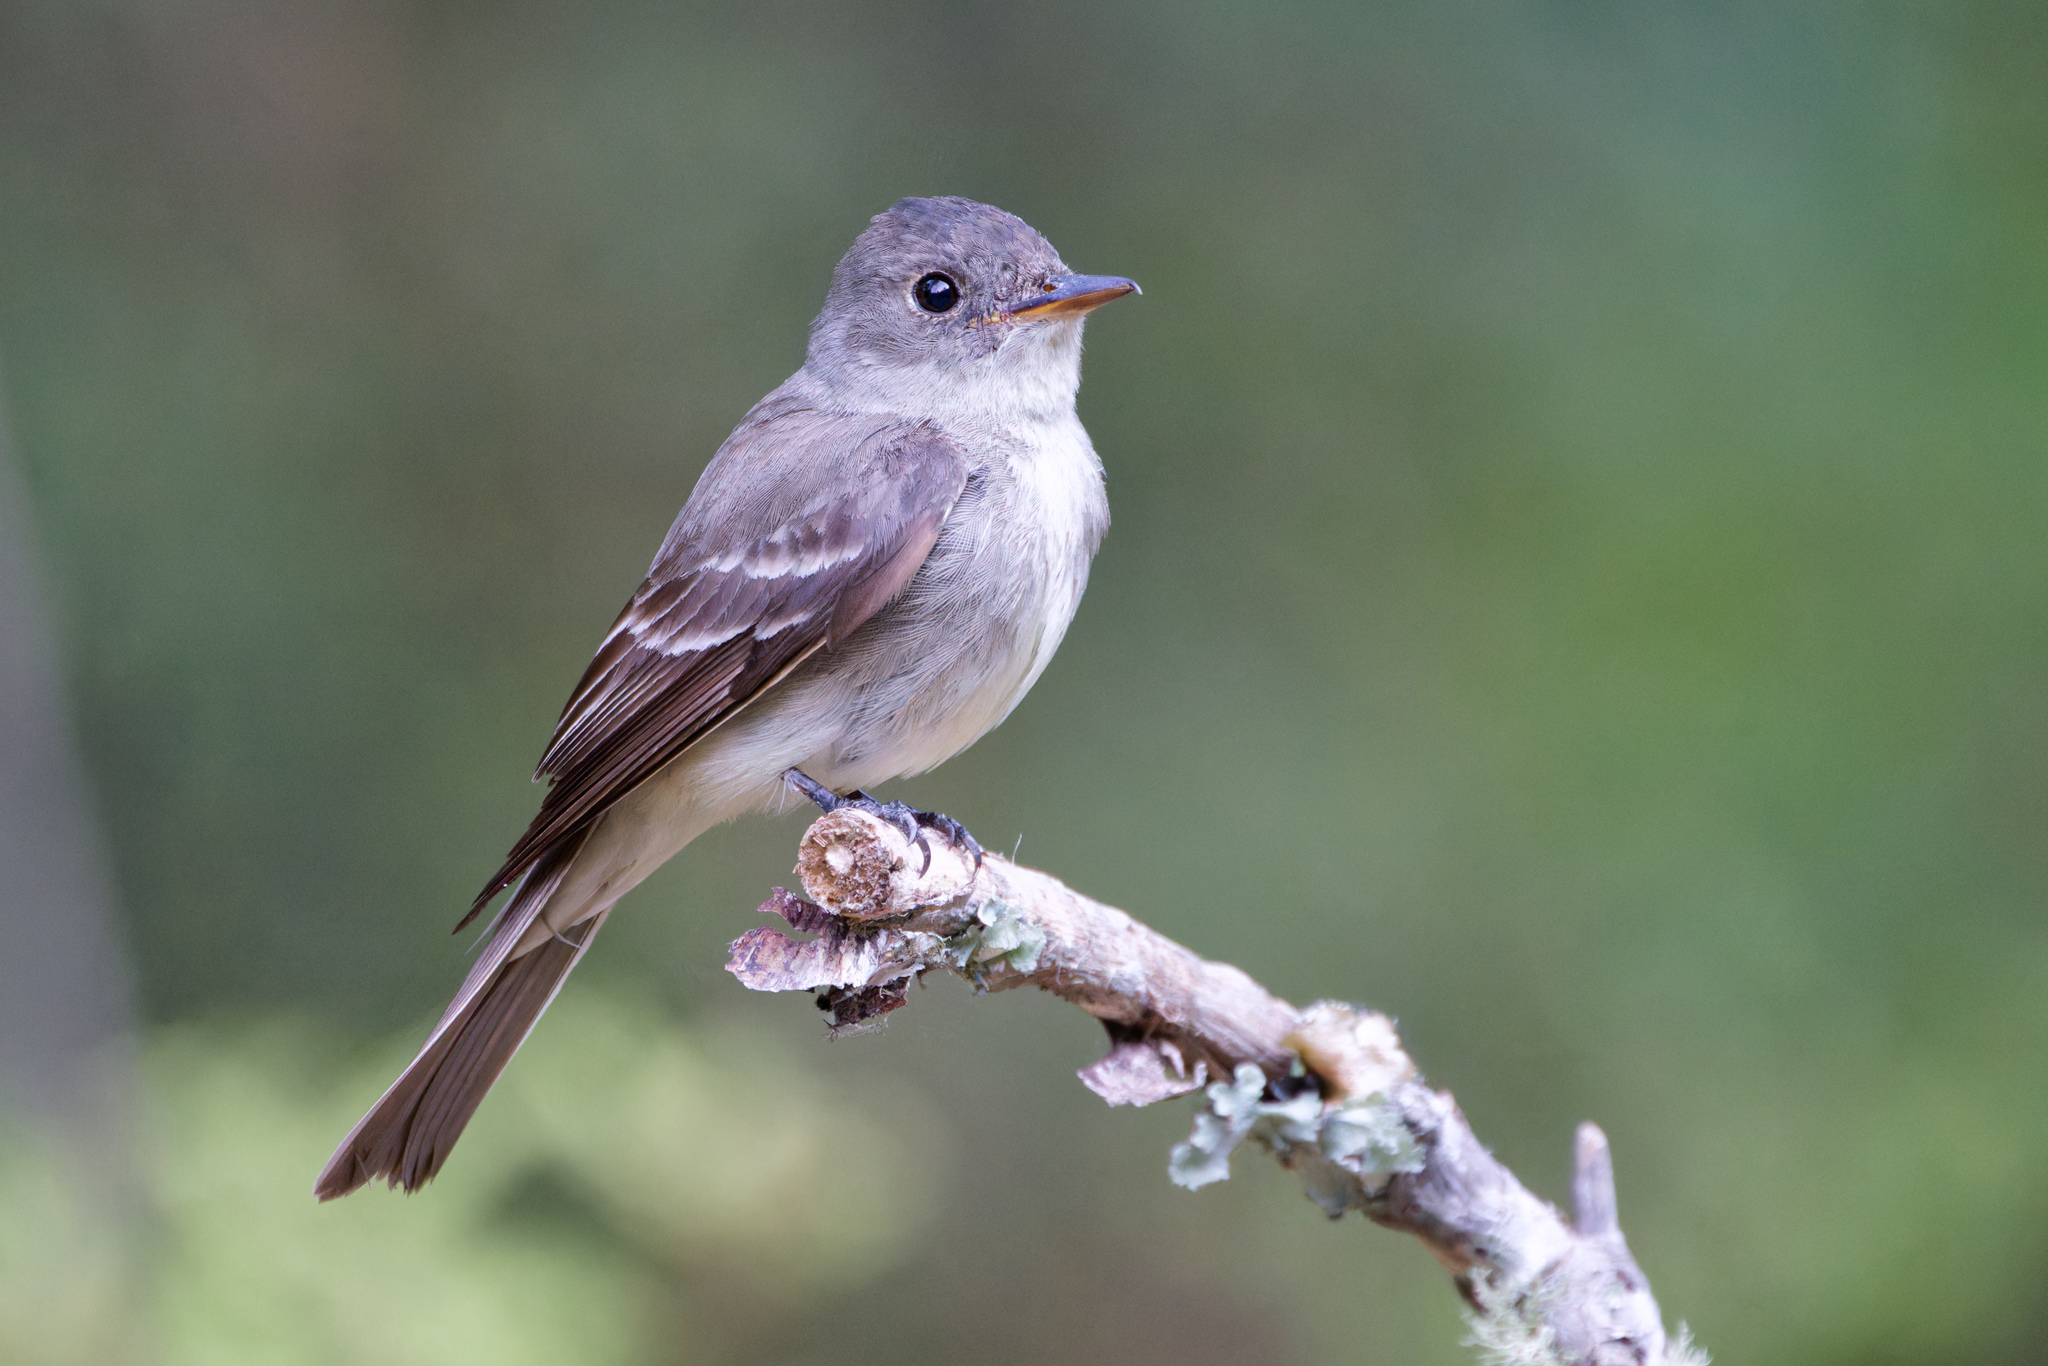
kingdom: Animalia
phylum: Chordata
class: Aves
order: Passeriformes
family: Tyrannidae
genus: Contopus
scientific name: Contopus virens
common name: Eastern wood-pewee
